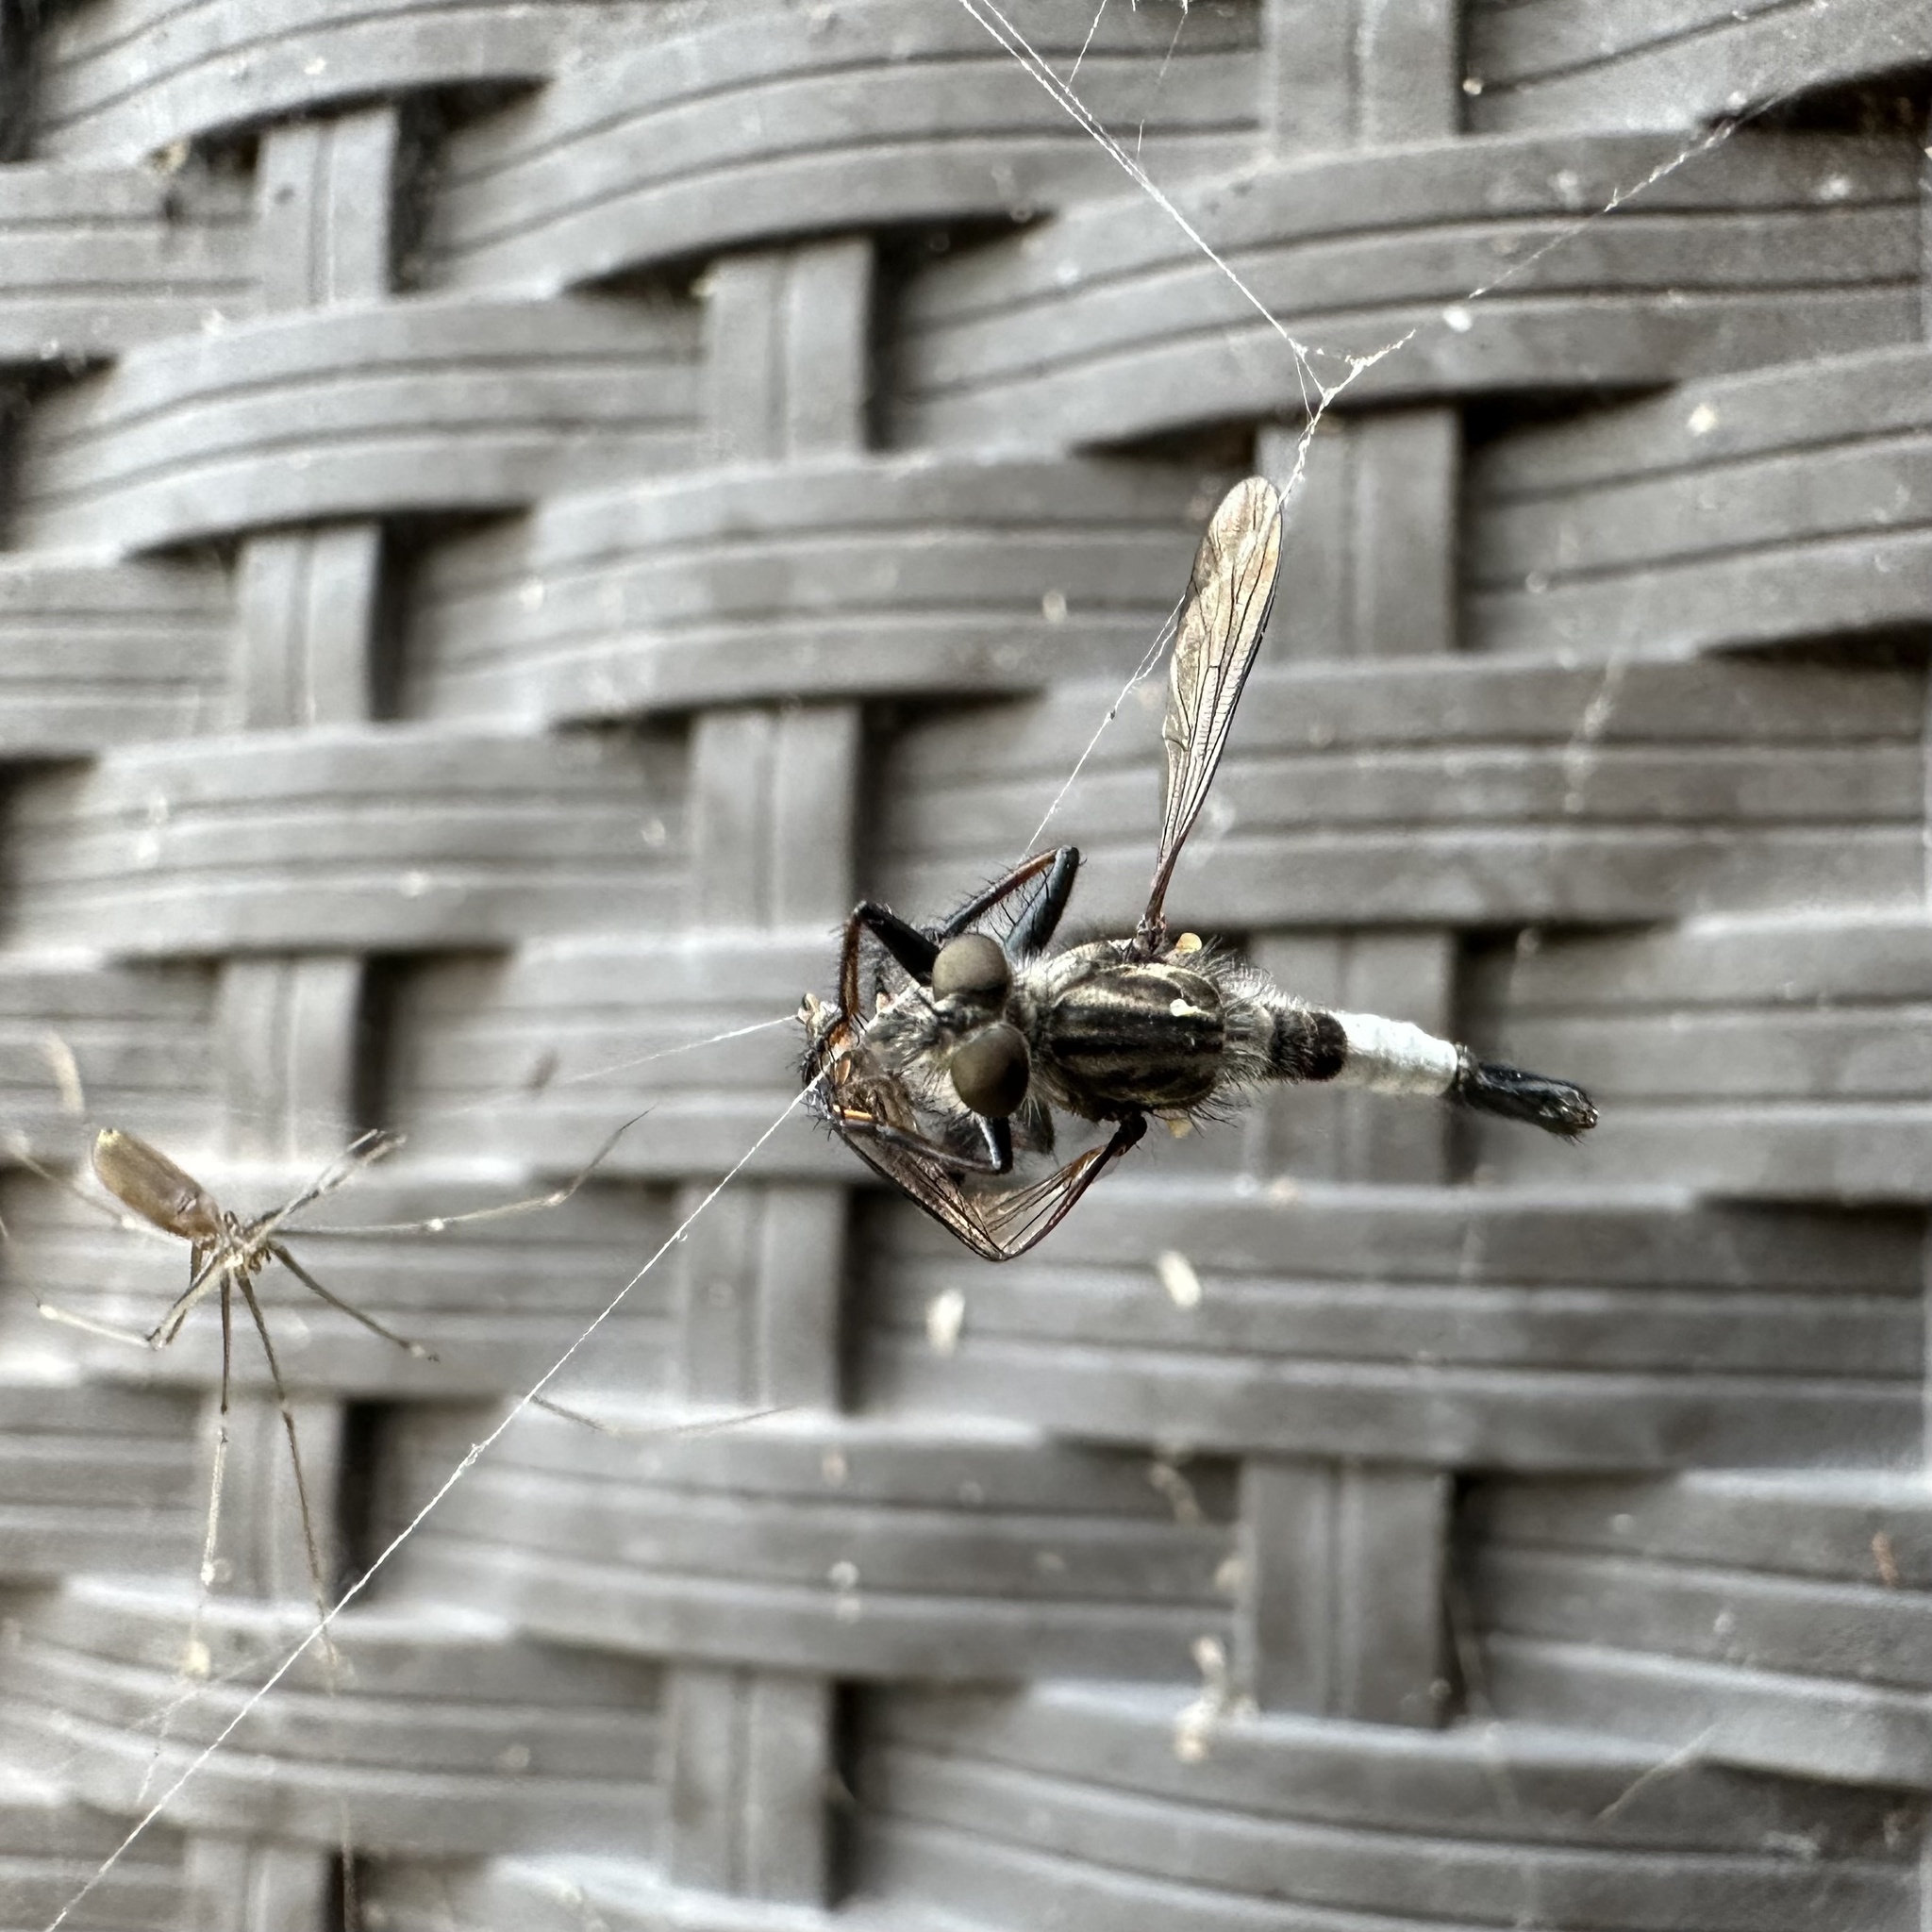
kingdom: Animalia
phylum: Arthropoda
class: Insecta
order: Diptera
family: Asilidae
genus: Efferia
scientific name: Efferia aestuans
